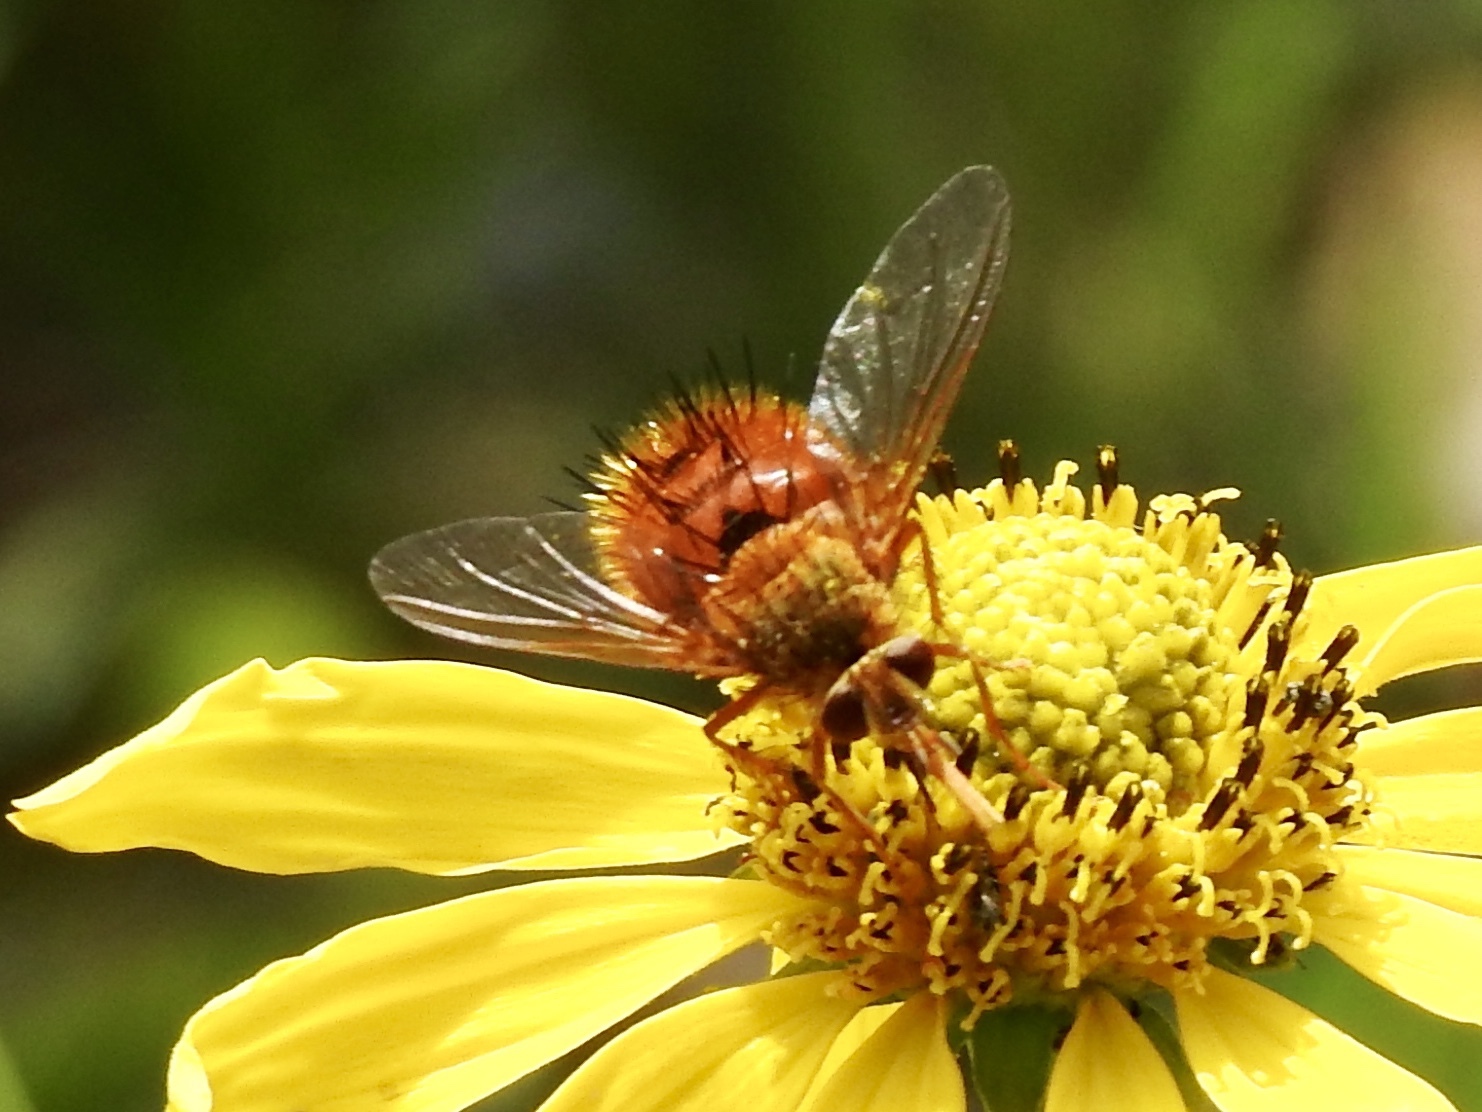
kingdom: Animalia
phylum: Arthropoda
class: Insecta
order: Diptera
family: Tachinidae
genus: Adejeania
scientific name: Adejeania vexatrix
